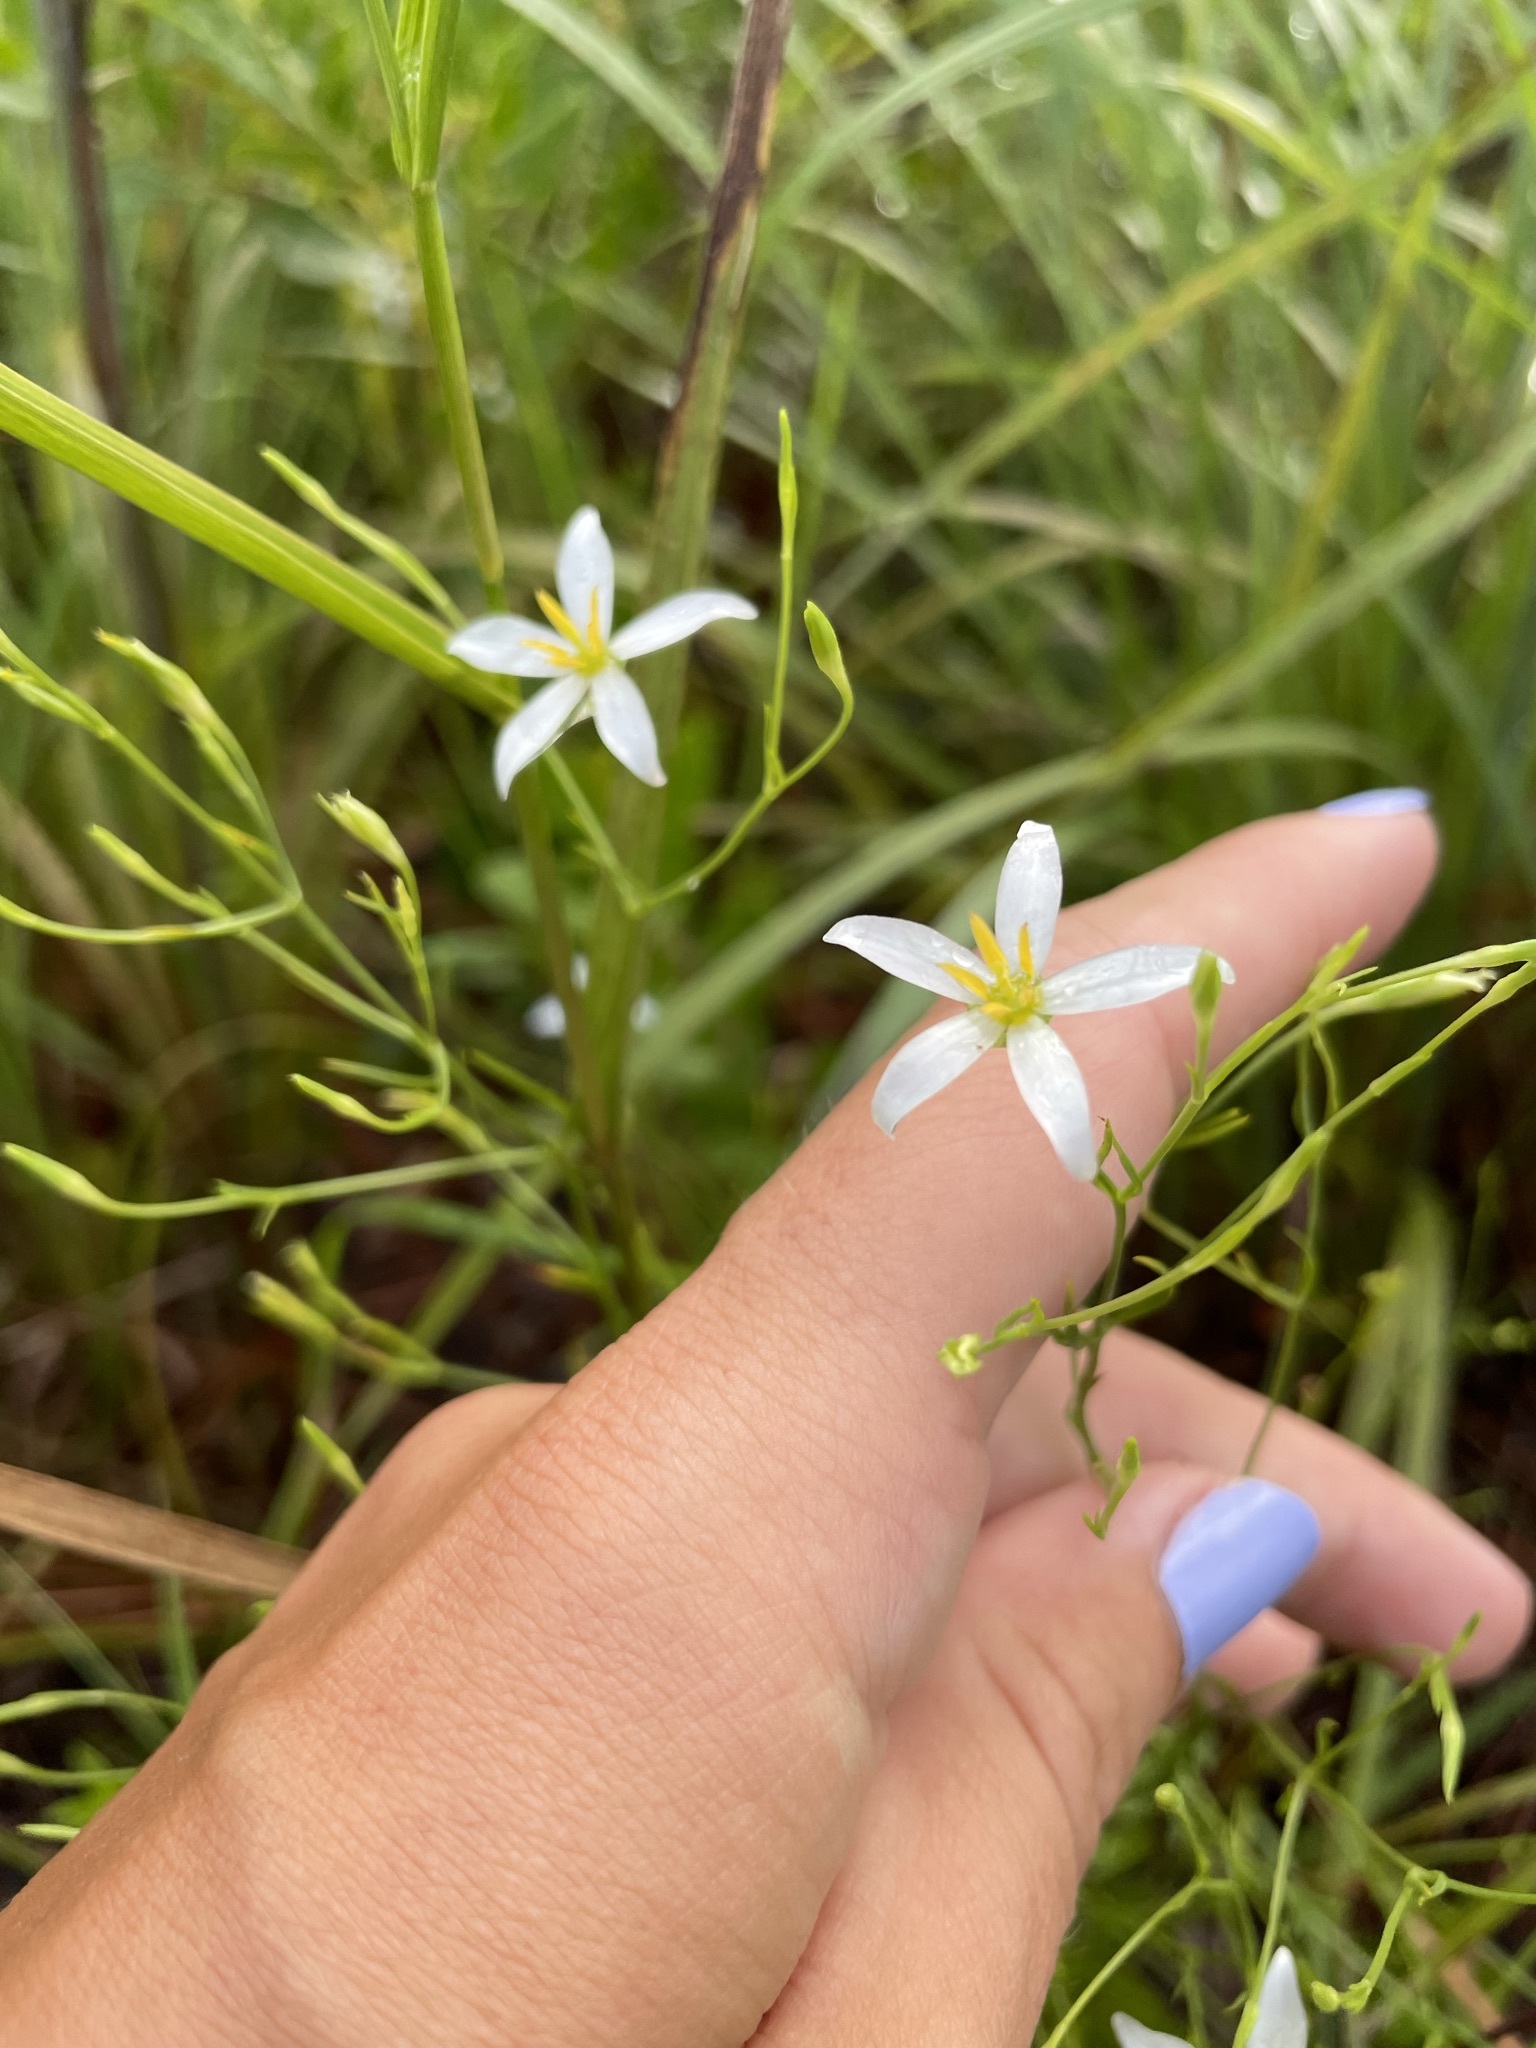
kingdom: Plantae
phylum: Tracheophyta
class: Magnoliopsida
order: Gentianales
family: Gentianaceae
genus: Sabatia
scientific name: Sabatia brevifolia
